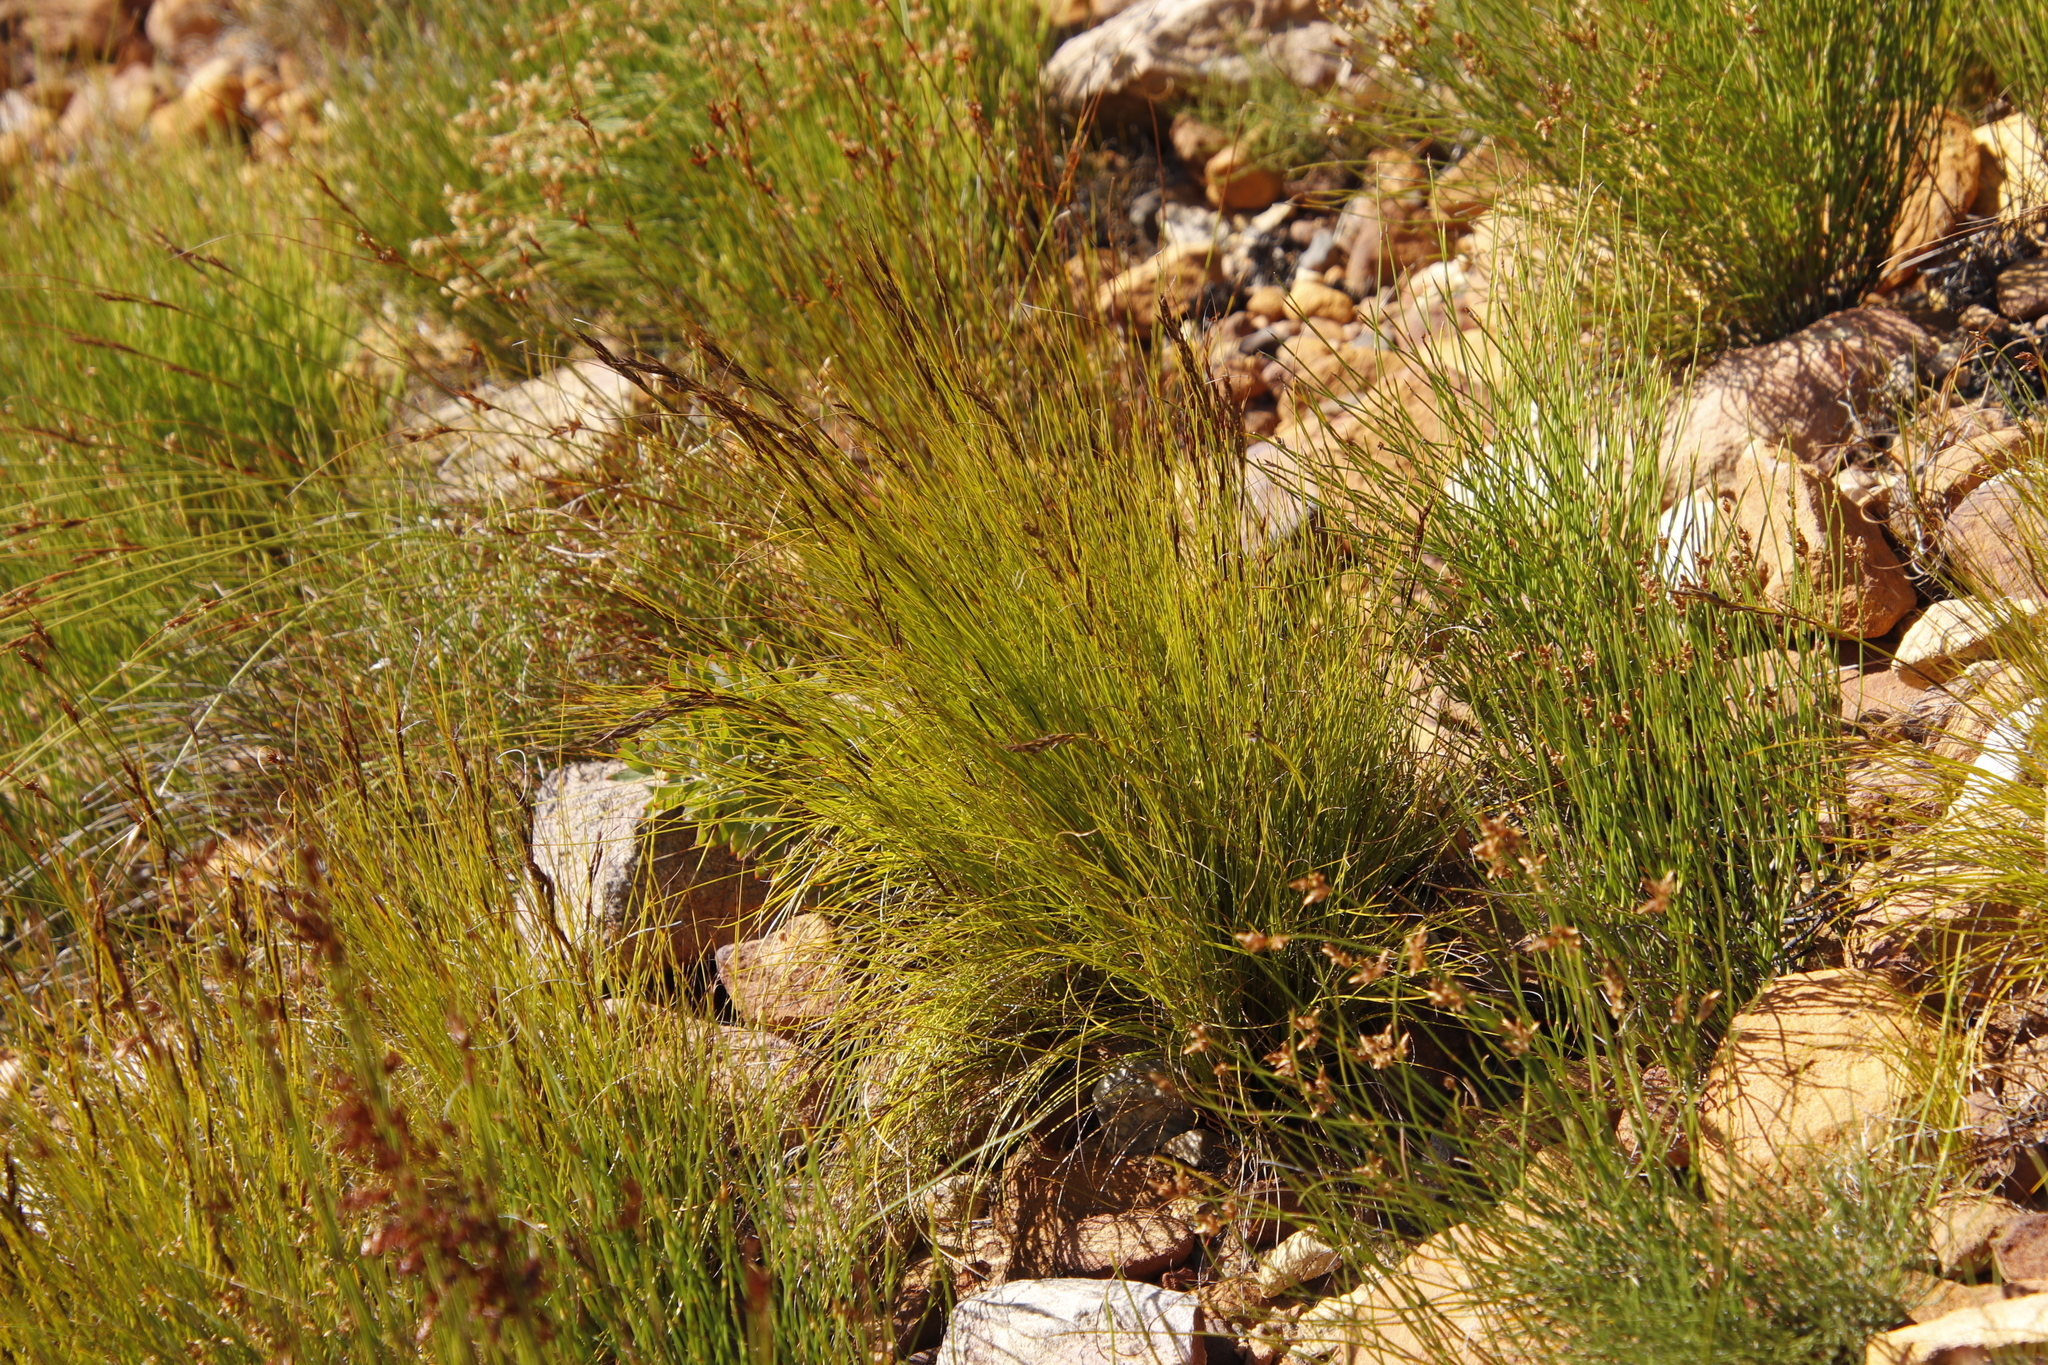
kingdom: Plantae
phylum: Tracheophyta
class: Liliopsida
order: Poales
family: Cyperaceae
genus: Tetraria
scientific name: Tetraria fasciata
